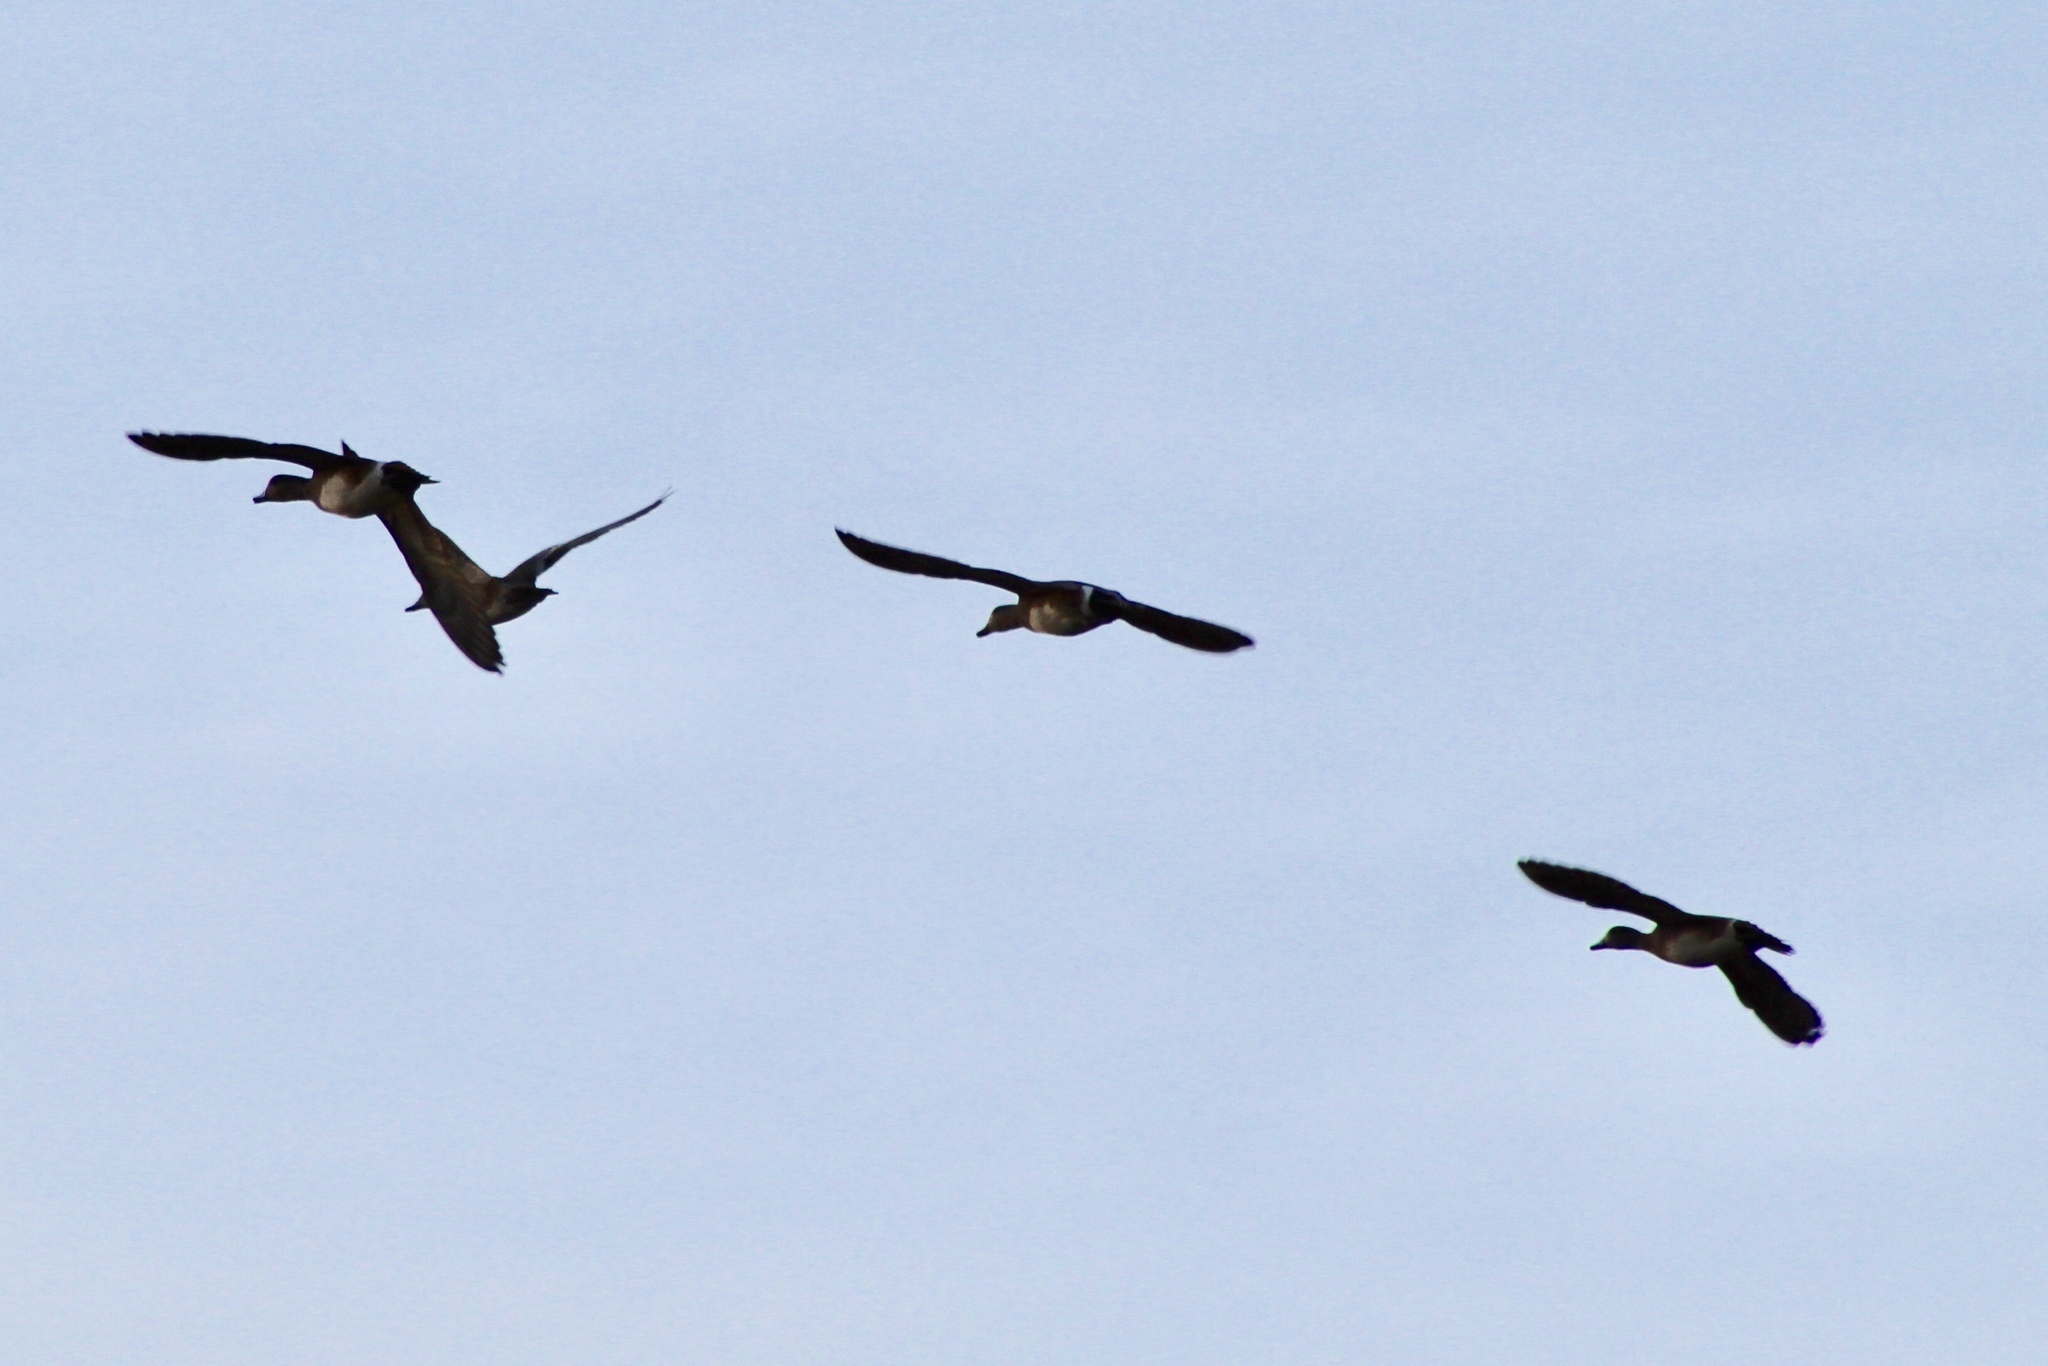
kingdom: Animalia
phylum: Chordata
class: Aves
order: Anseriformes
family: Anatidae
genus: Mareca
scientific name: Mareca americana
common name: American wigeon
